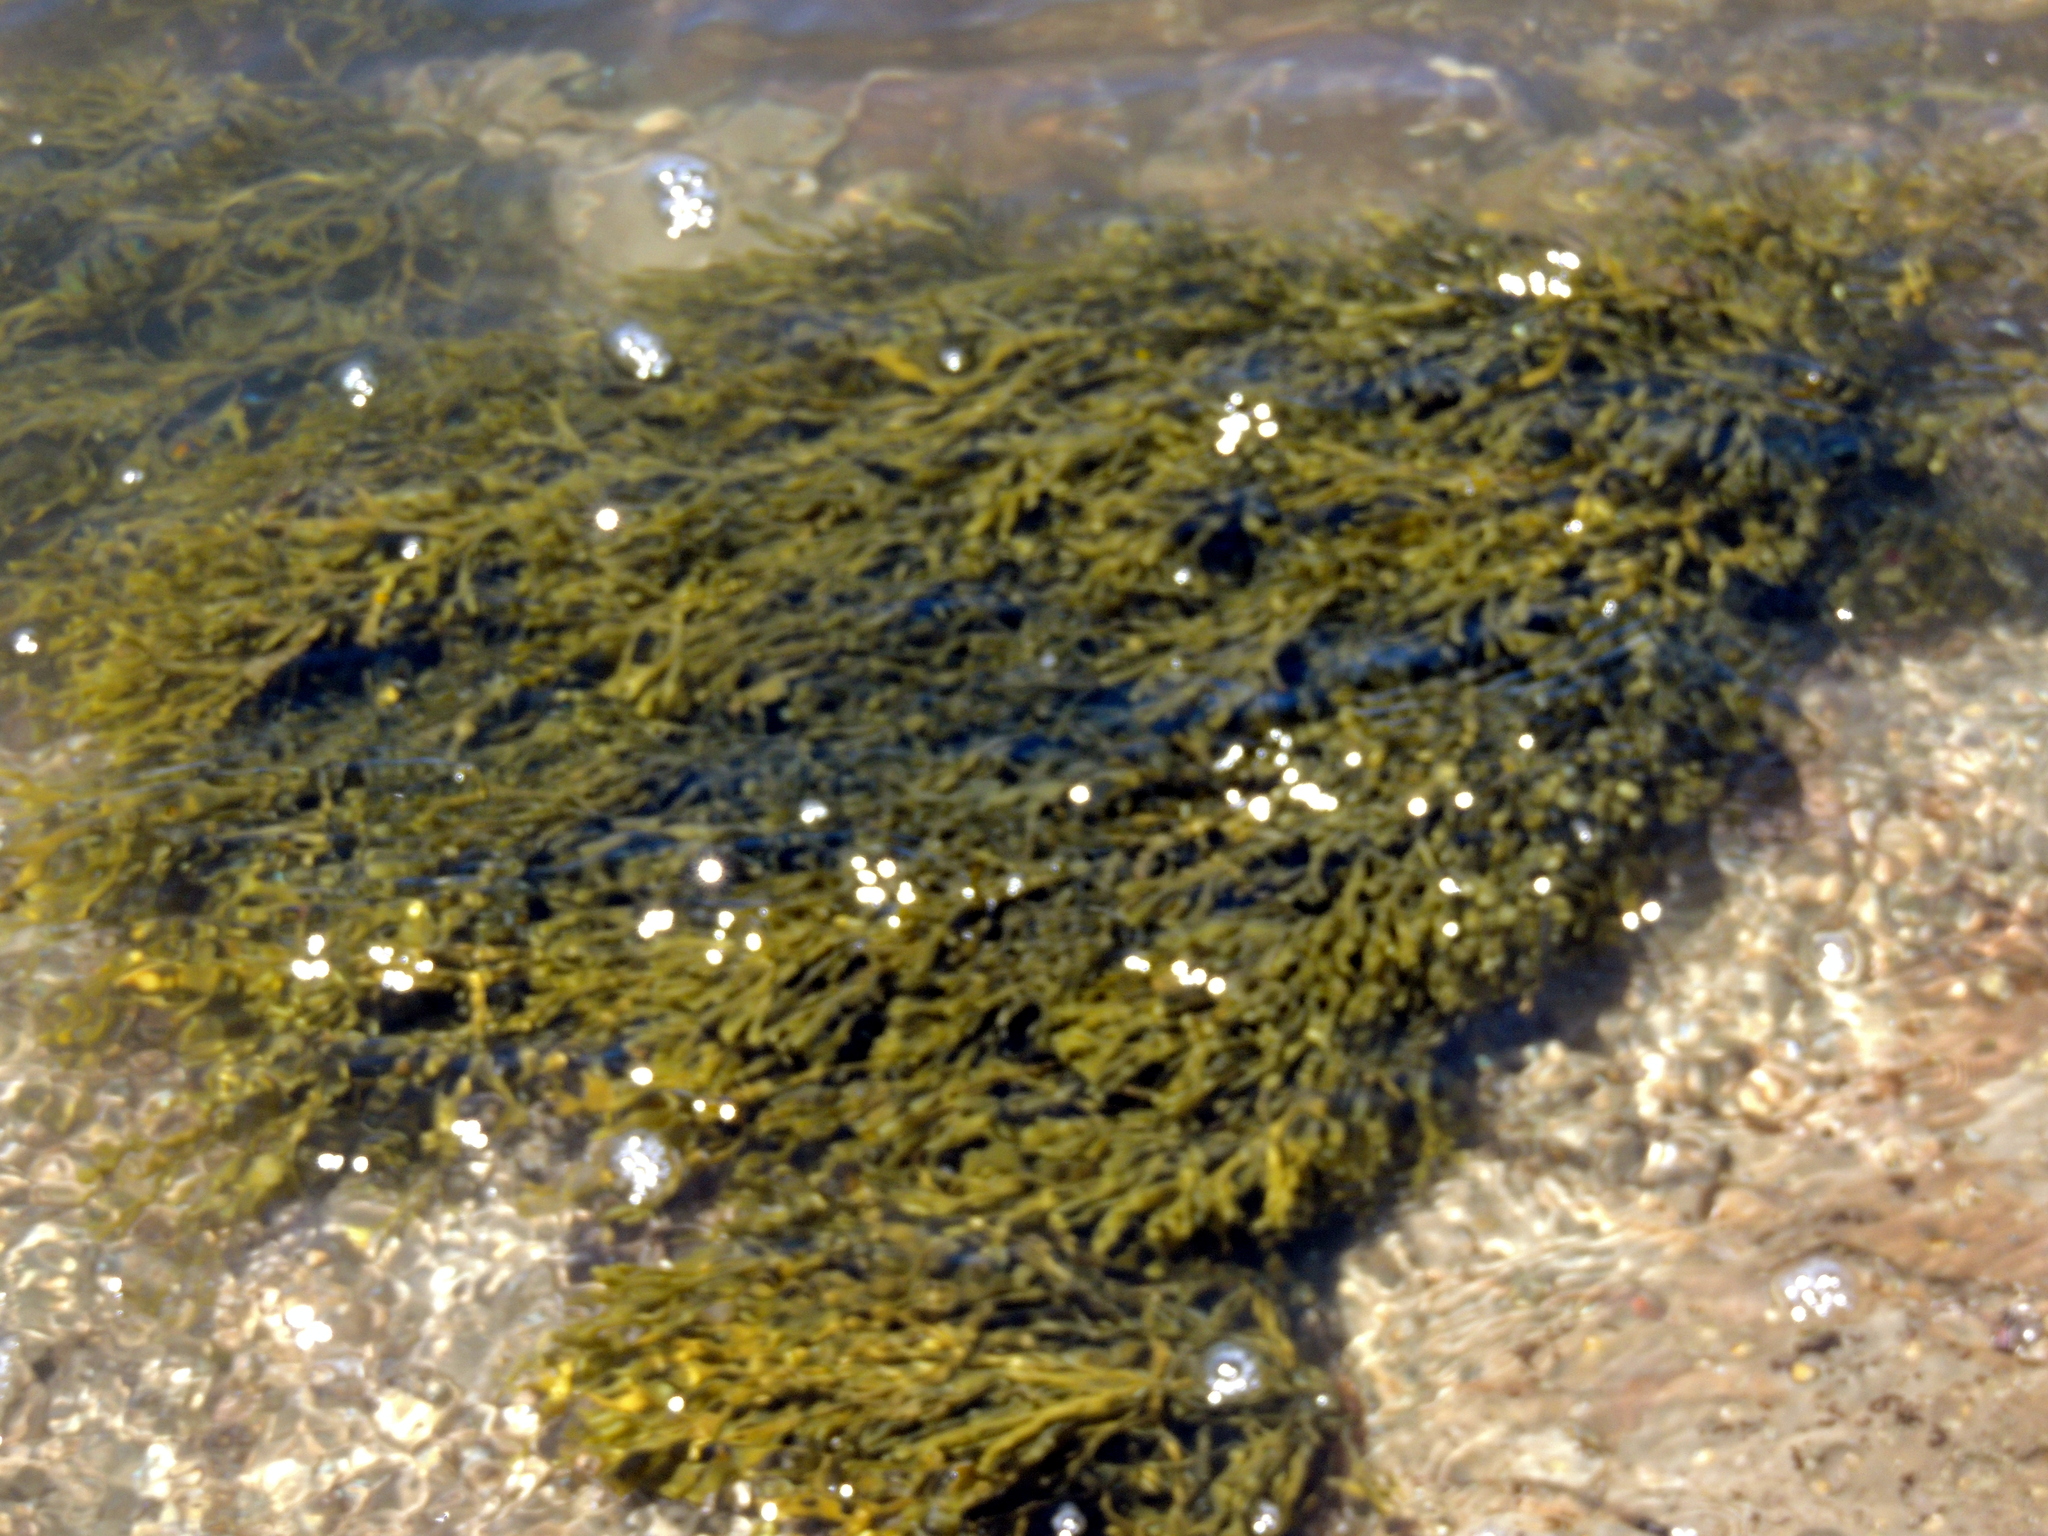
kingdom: Chromista
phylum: Ochrophyta
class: Phaeophyceae
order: Fucales
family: Fucaceae
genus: Silvetia
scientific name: Silvetia
